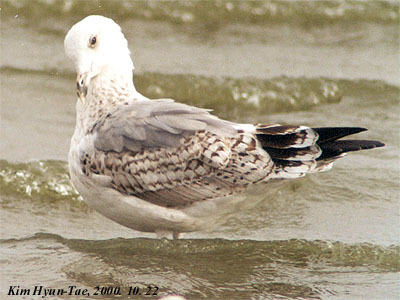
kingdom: Animalia
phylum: Chordata
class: Aves
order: Charadriiformes
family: Laridae
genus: Larus
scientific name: Larus vegae
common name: Vega gull
